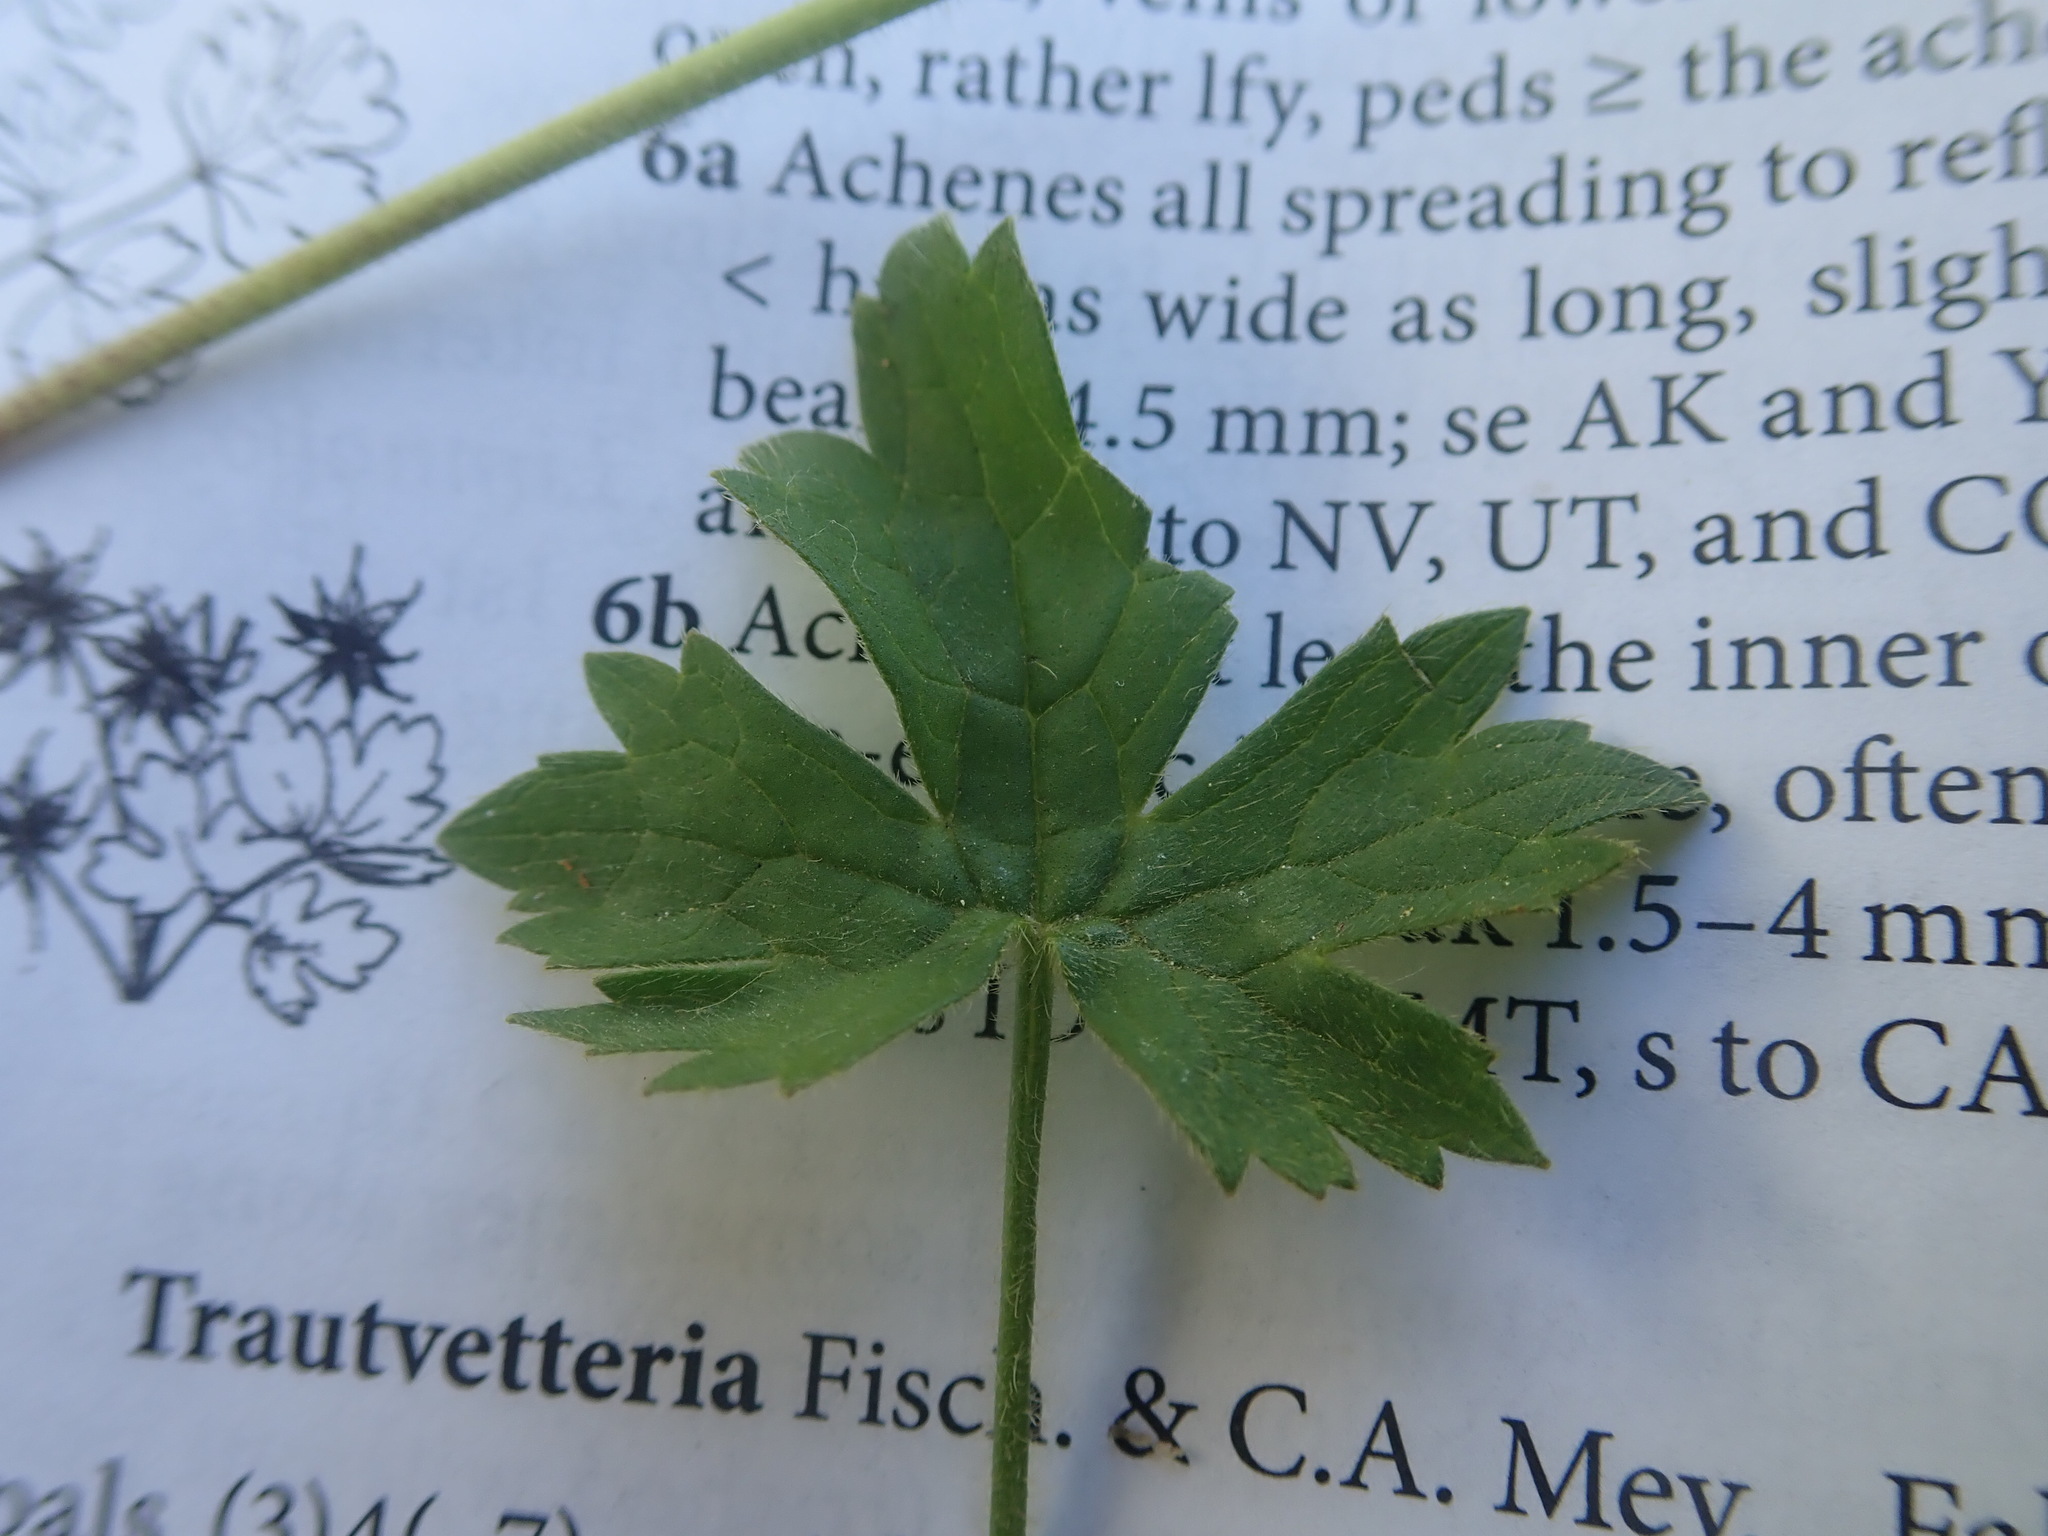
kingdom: Plantae
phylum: Tracheophyta
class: Magnoliopsida
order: Ranunculales
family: Ranunculaceae
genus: Ranunculus
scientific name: Ranunculus acris
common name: Meadow buttercup
